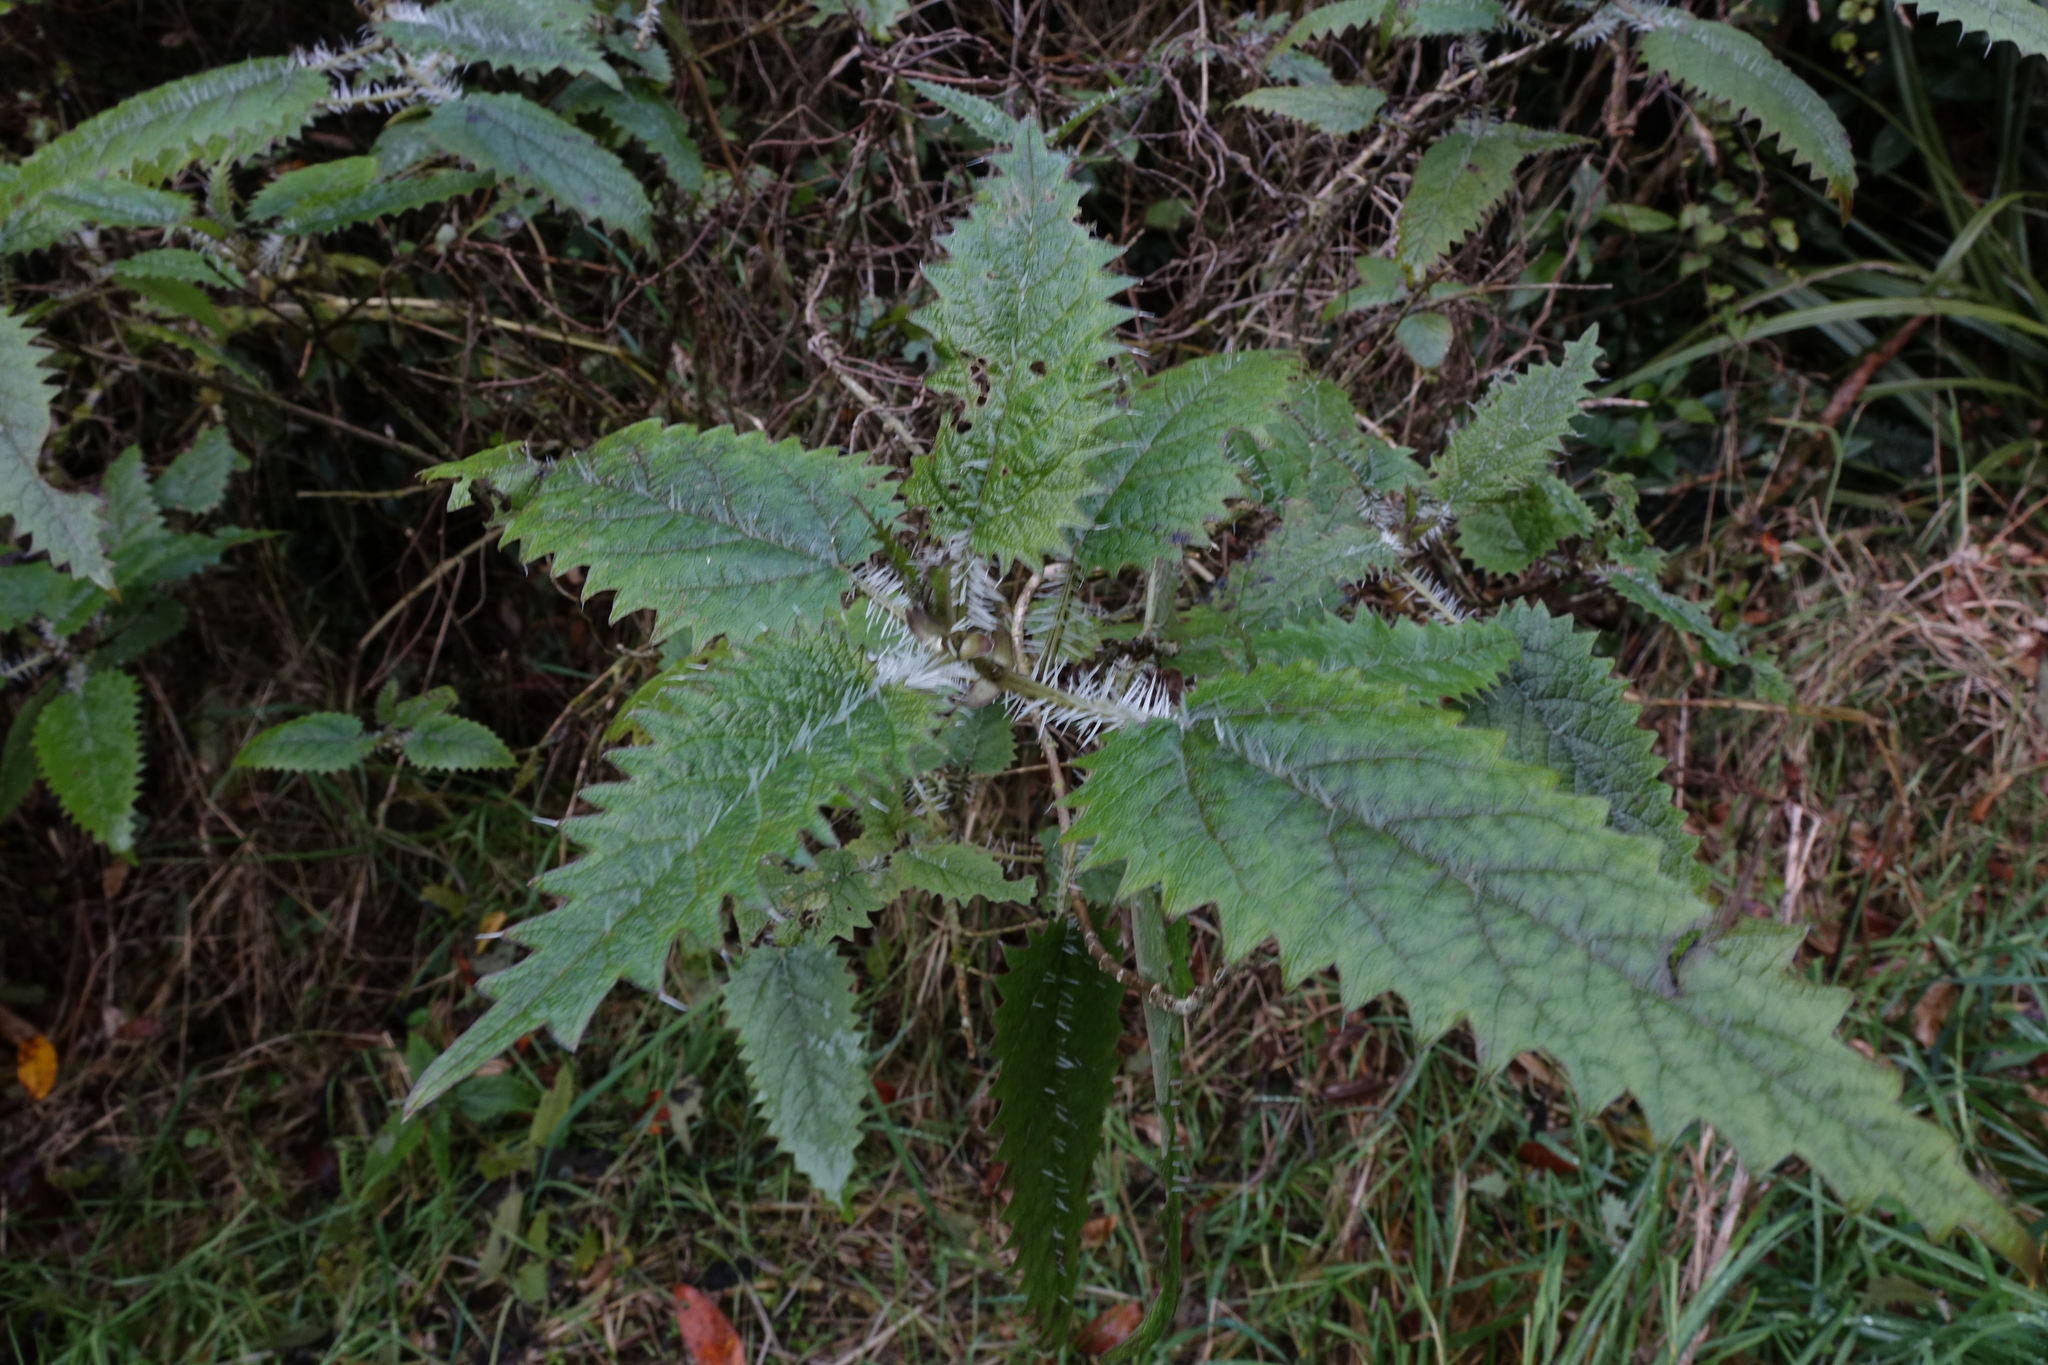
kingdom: Plantae
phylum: Tracheophyta
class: Magnoliopsida
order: Rosales
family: Urticaceae
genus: Urtica
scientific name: Urtica ferox
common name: Tree nettle
